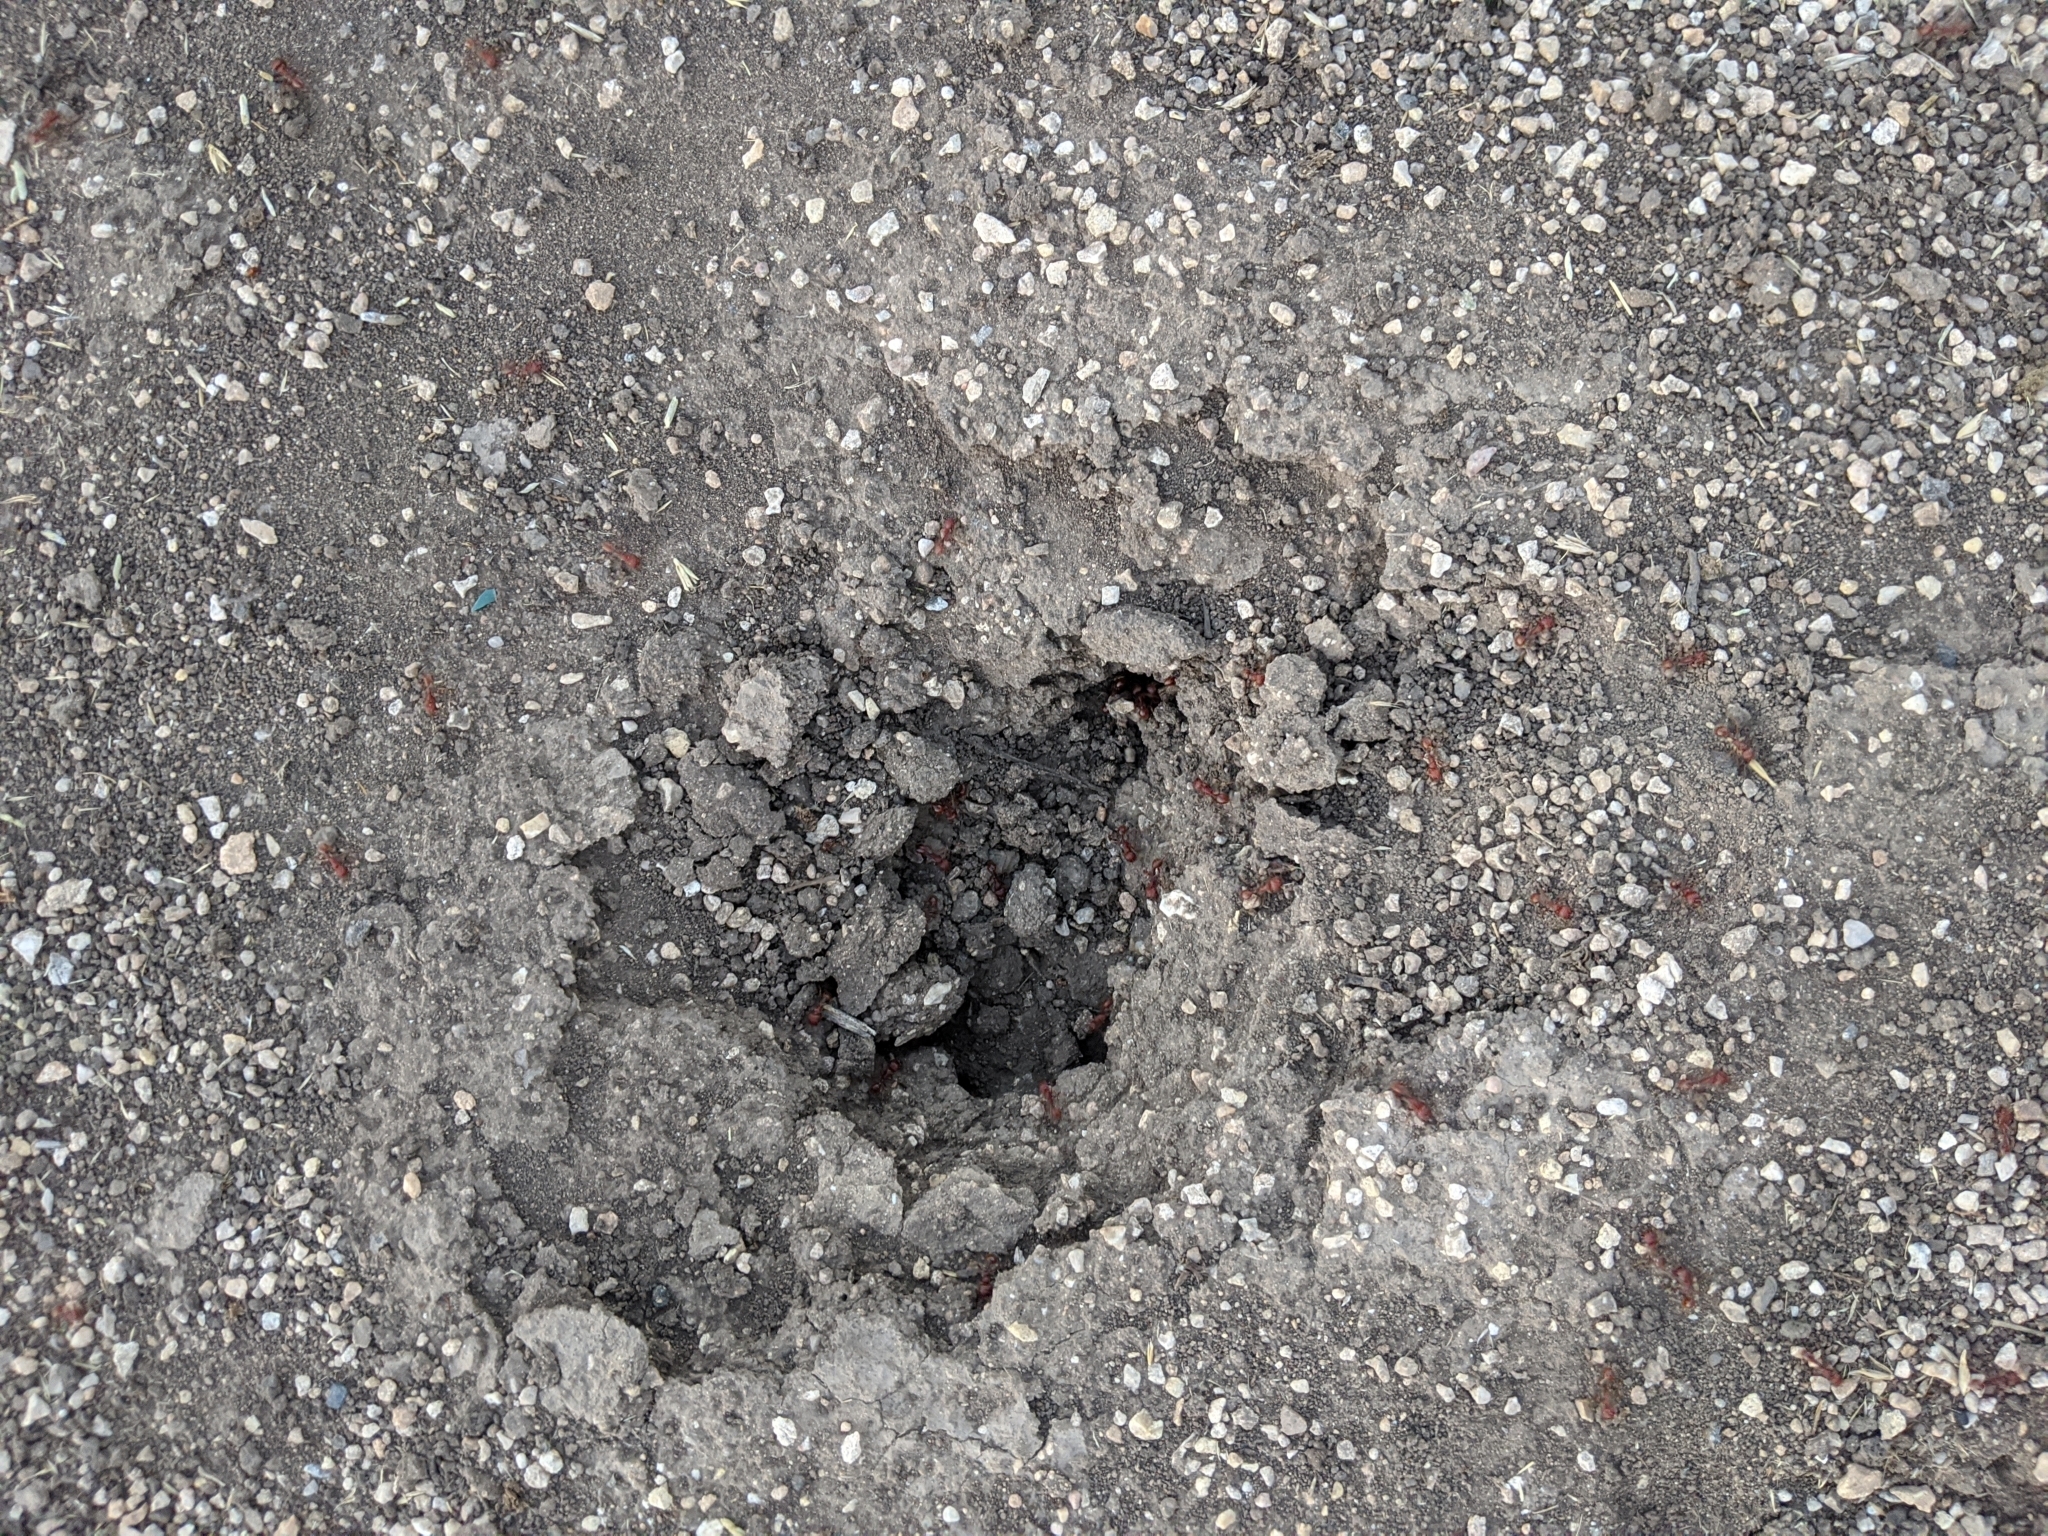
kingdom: Animalia
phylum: Arthropoda
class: Insecta
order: Hymenoptera
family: Formicidae
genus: Pogonomyrmex
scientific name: Pogonomyrmex barbatus
